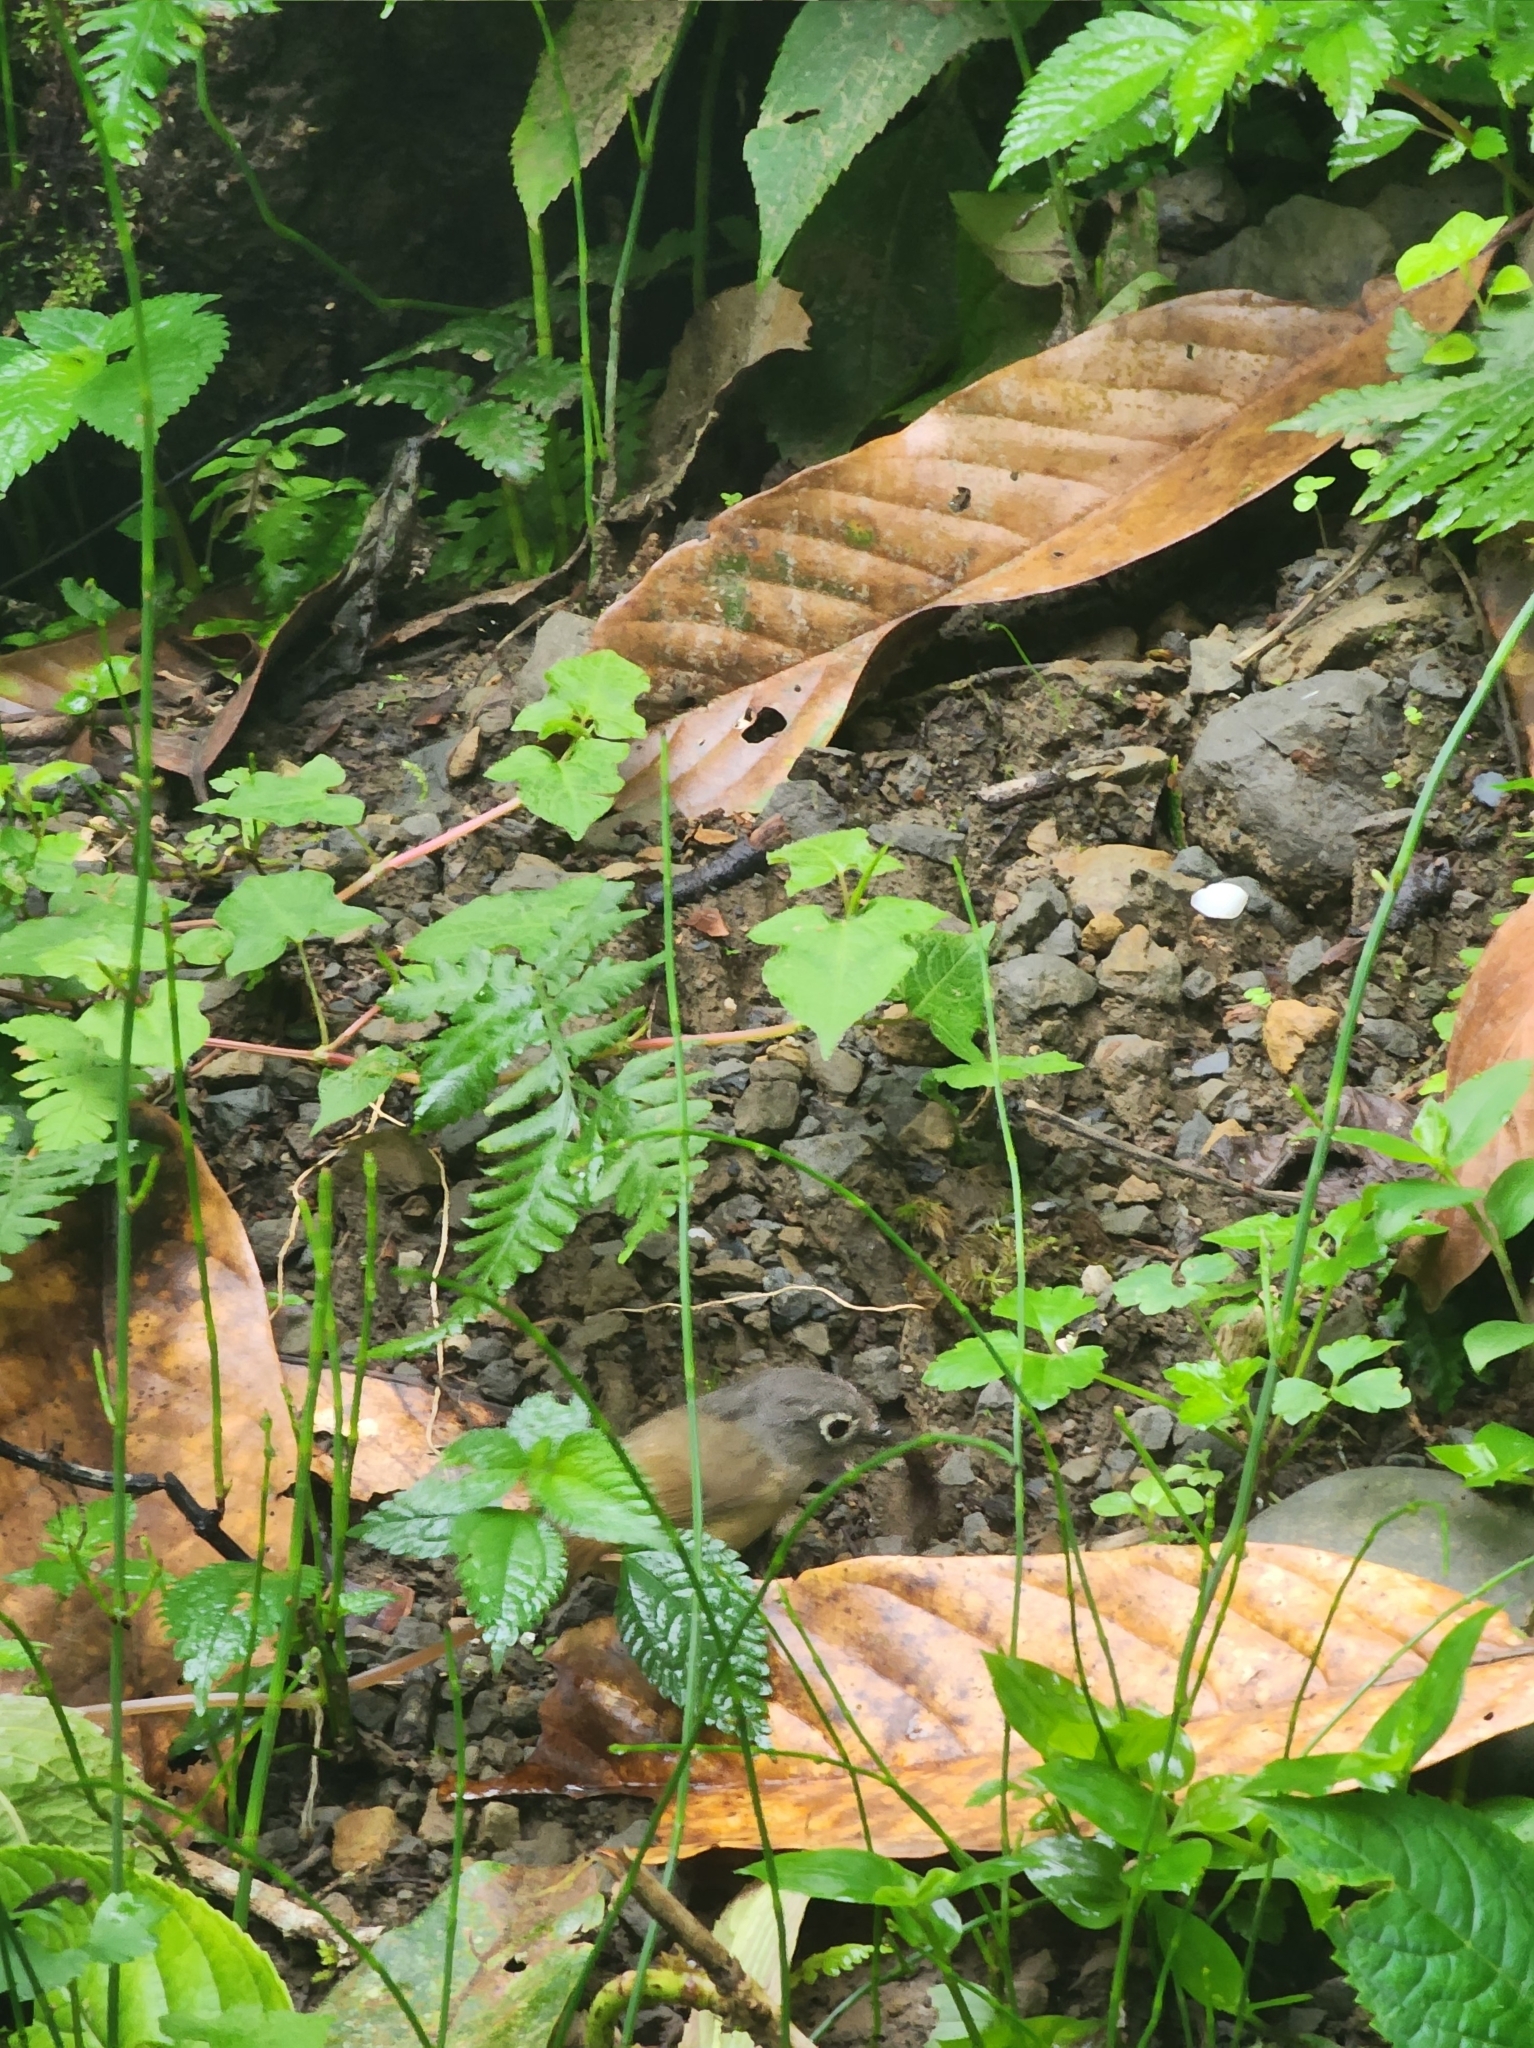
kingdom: Animalia
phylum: Chordata
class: Aves
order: Passeriformes
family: Pellorneidae
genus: Alcippe
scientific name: Alcippe morrisonia
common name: Grey-cheeked fulvetta
